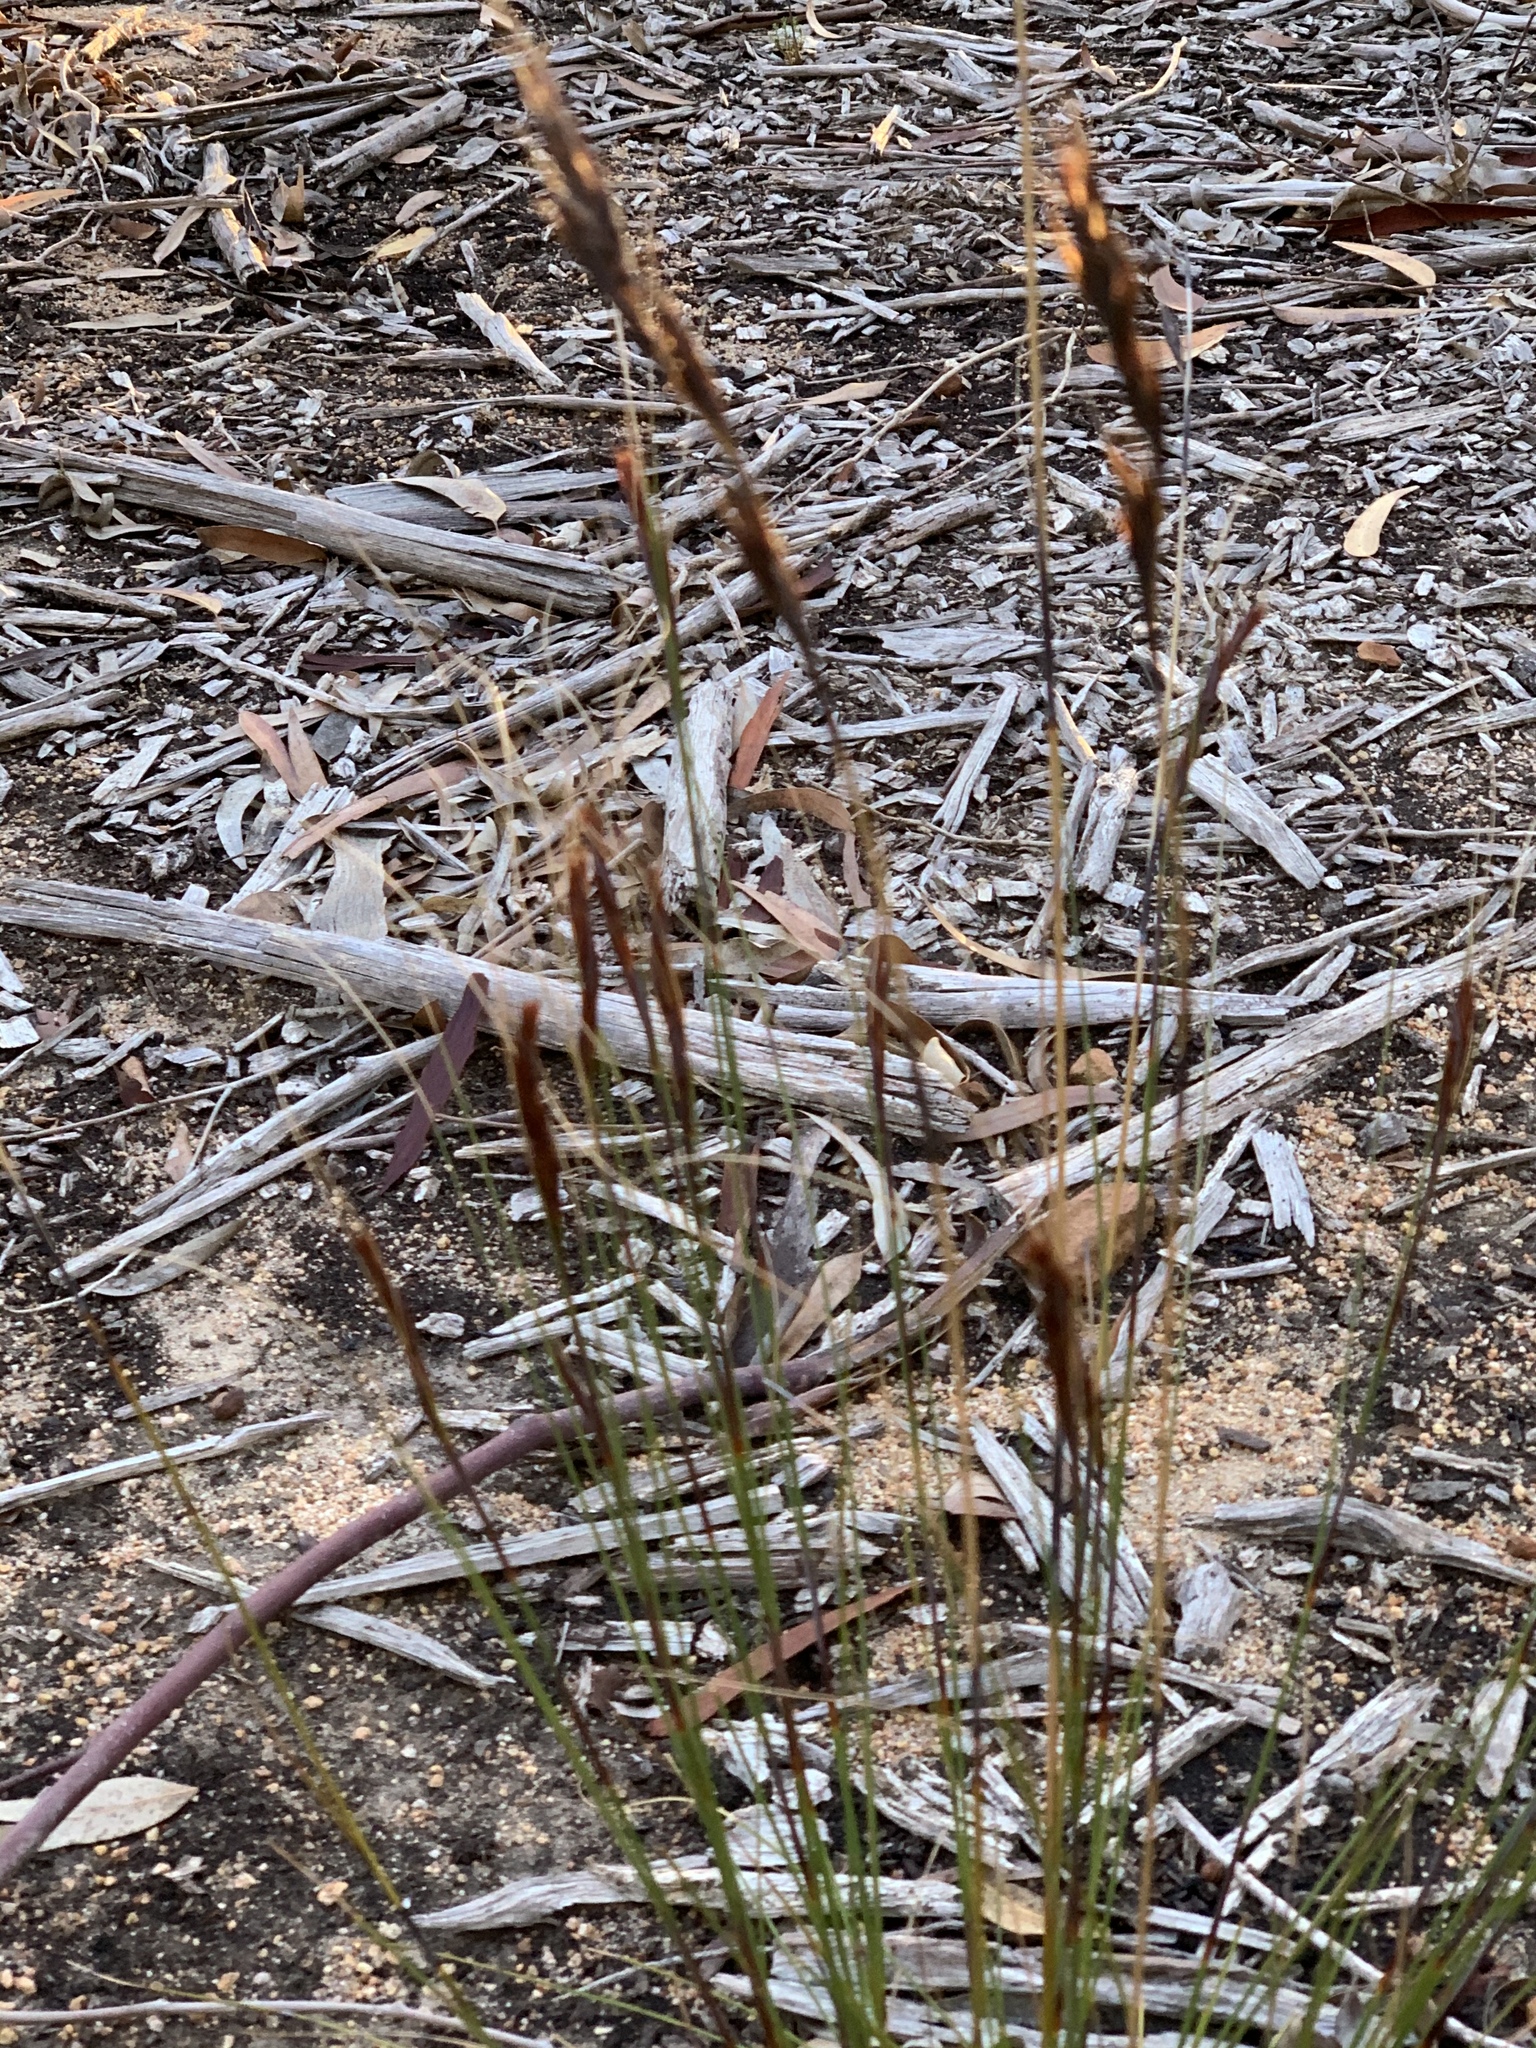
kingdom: Plantae
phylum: Tracheophyta
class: Liliopsida
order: Poales
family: Cyperaceae
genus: Tetraria
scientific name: Tetraria ustulata
